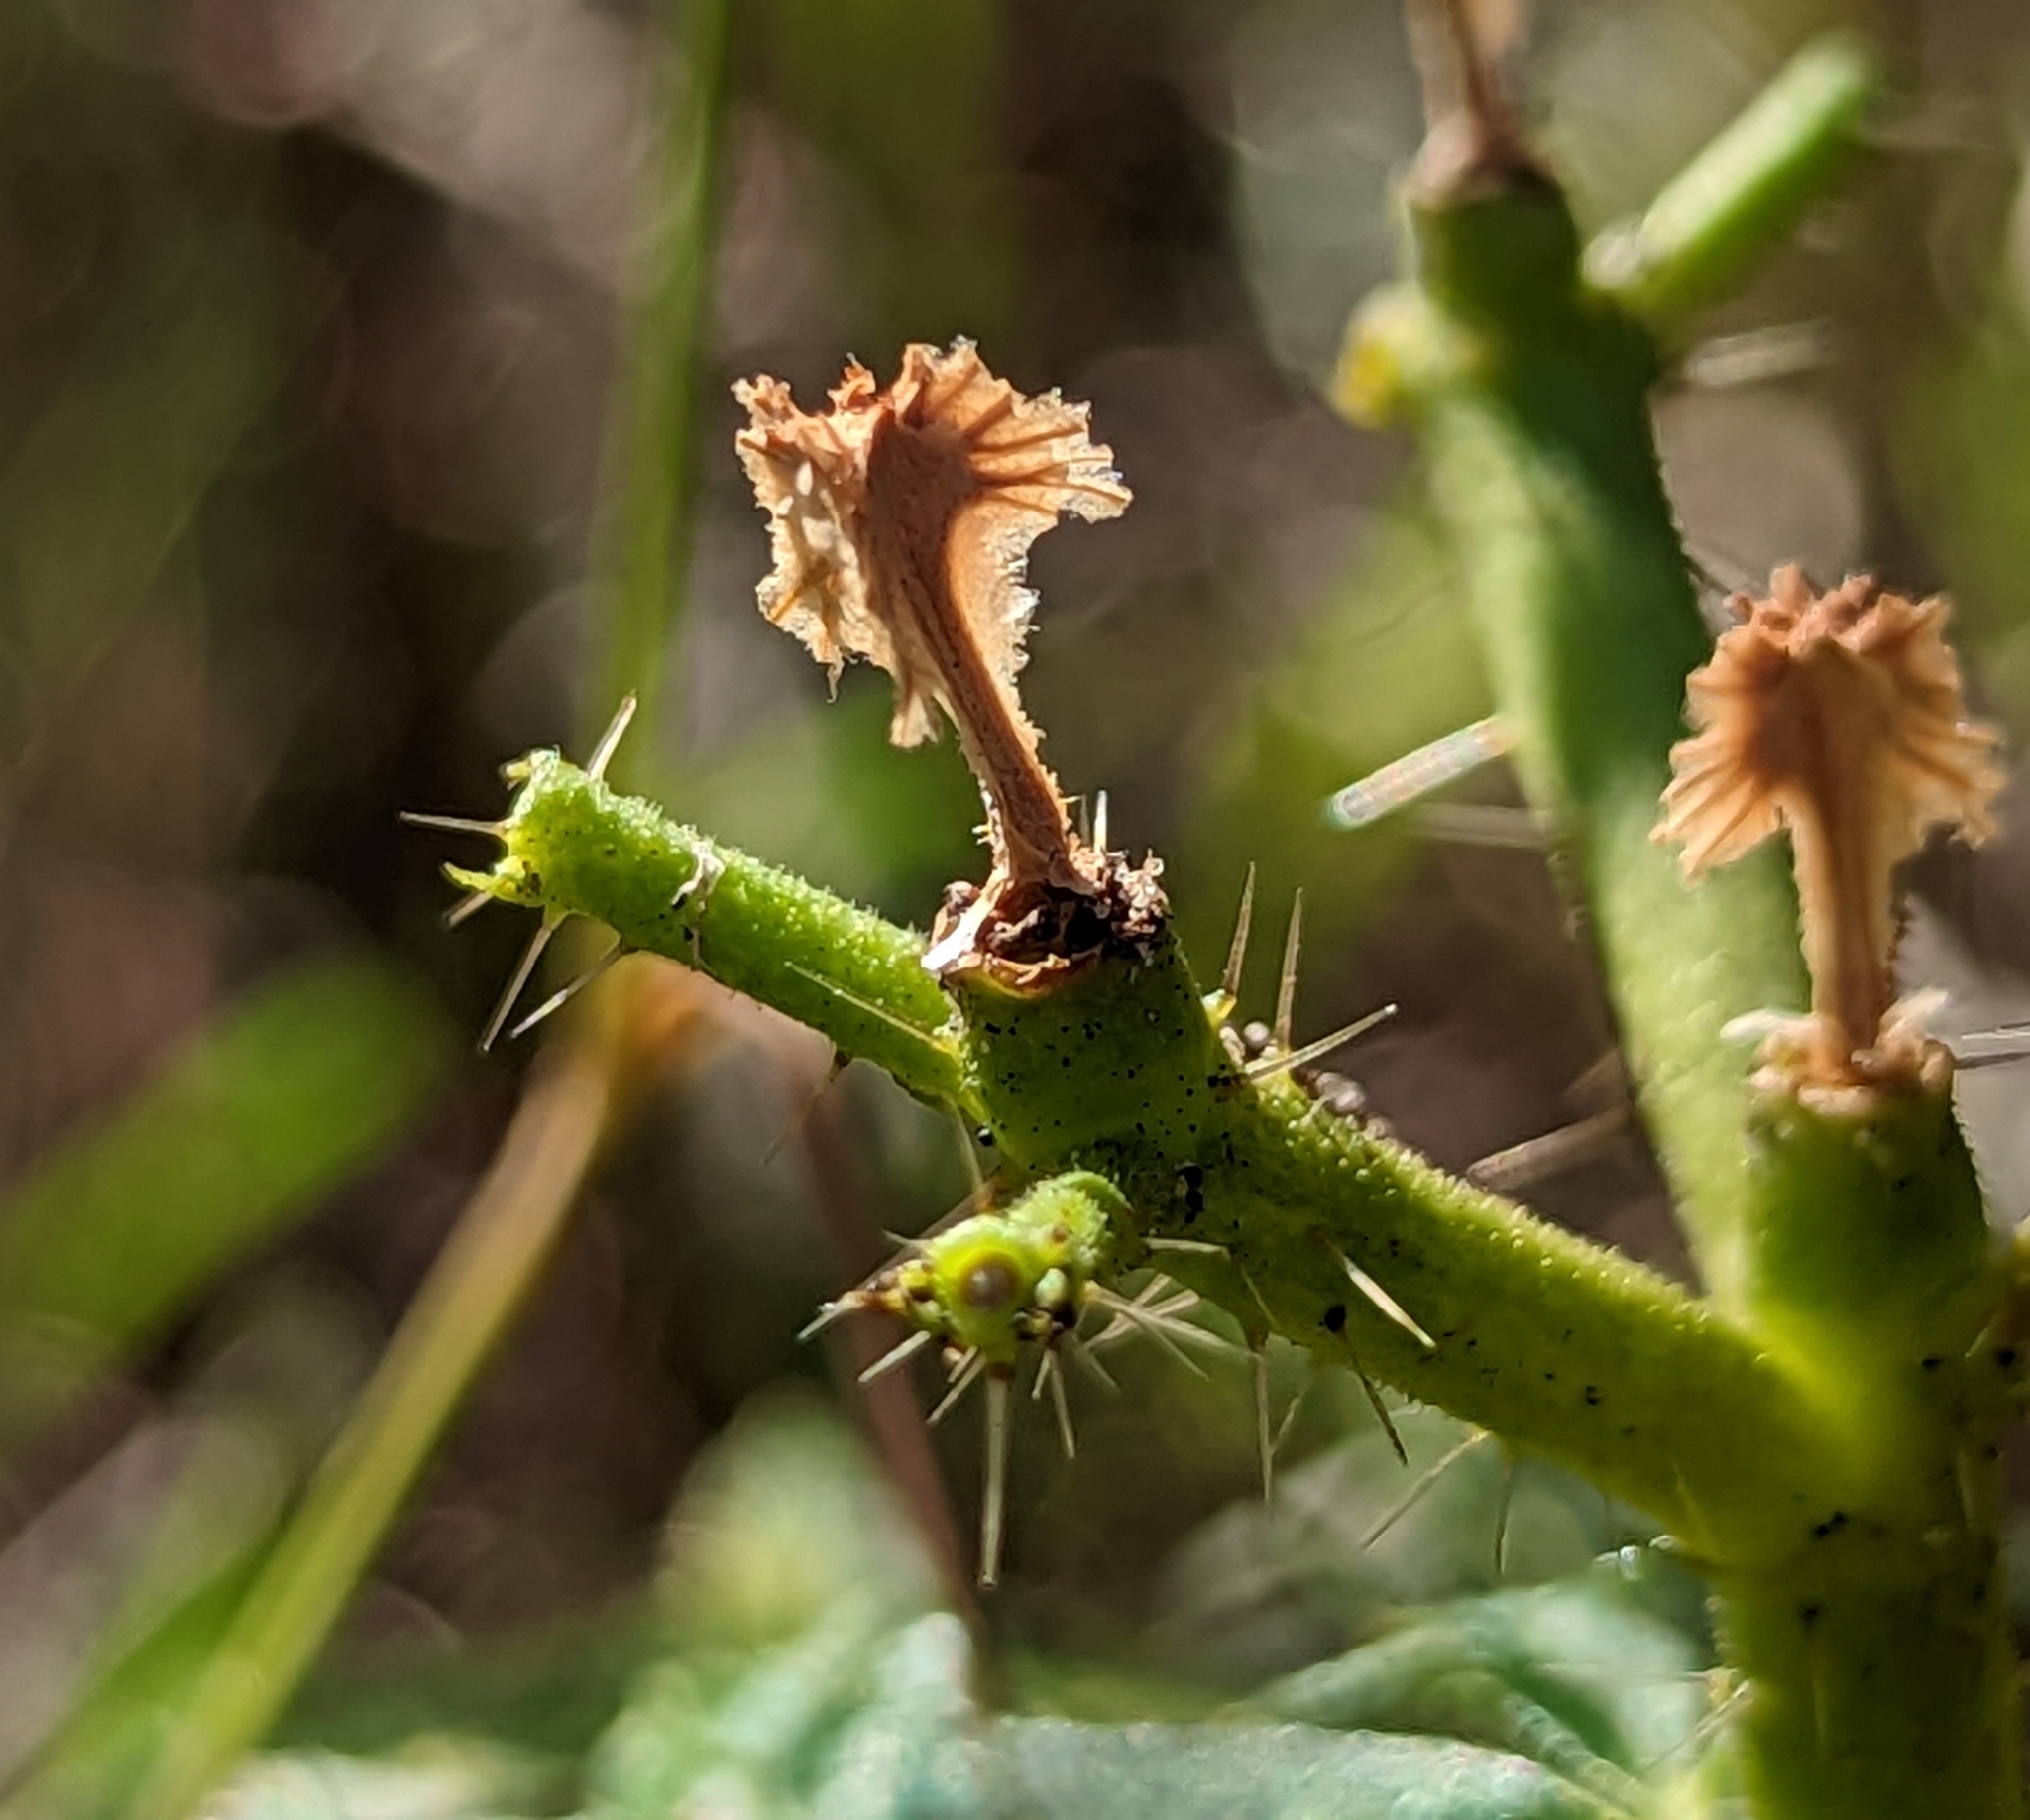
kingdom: Plantae
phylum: Tracheophyta
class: Magnoliopsida
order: Malpighiales
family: Euphorbiaceae
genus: Cnidoscolus
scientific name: Cnidoscolus stimulosus
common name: Bull-nettle
